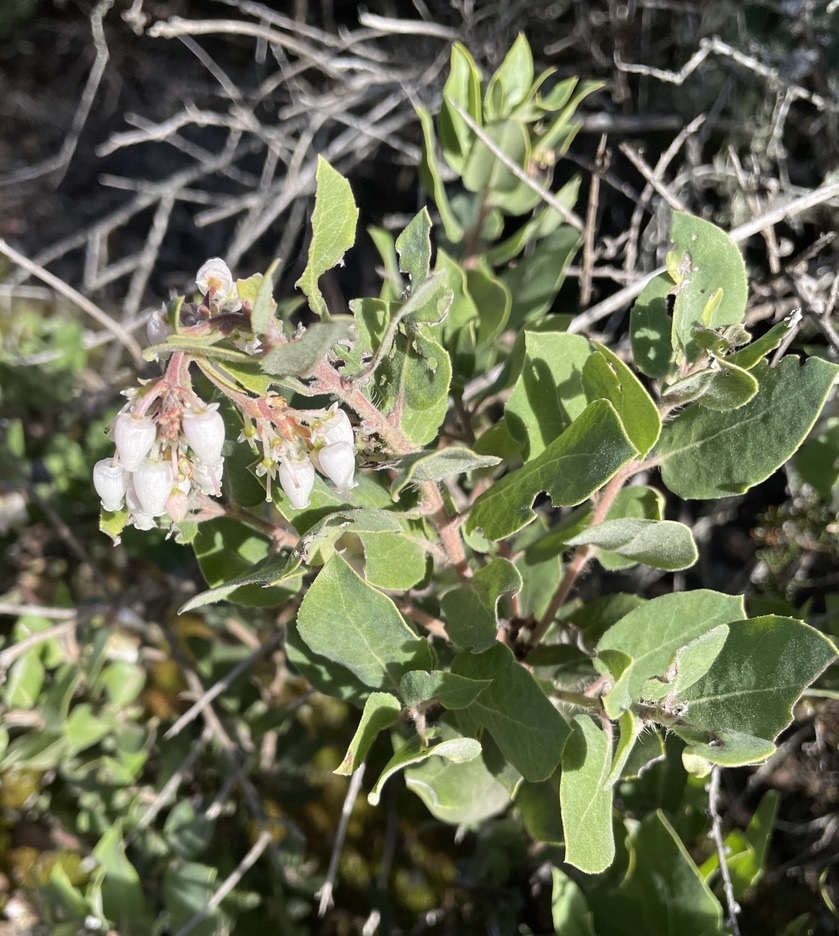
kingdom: Plantae
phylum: Tracheophyta
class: Magnoliopsida
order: Ericales
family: Ericaceae
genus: Arctostaphylos
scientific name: Arctostaphylos crustacea
